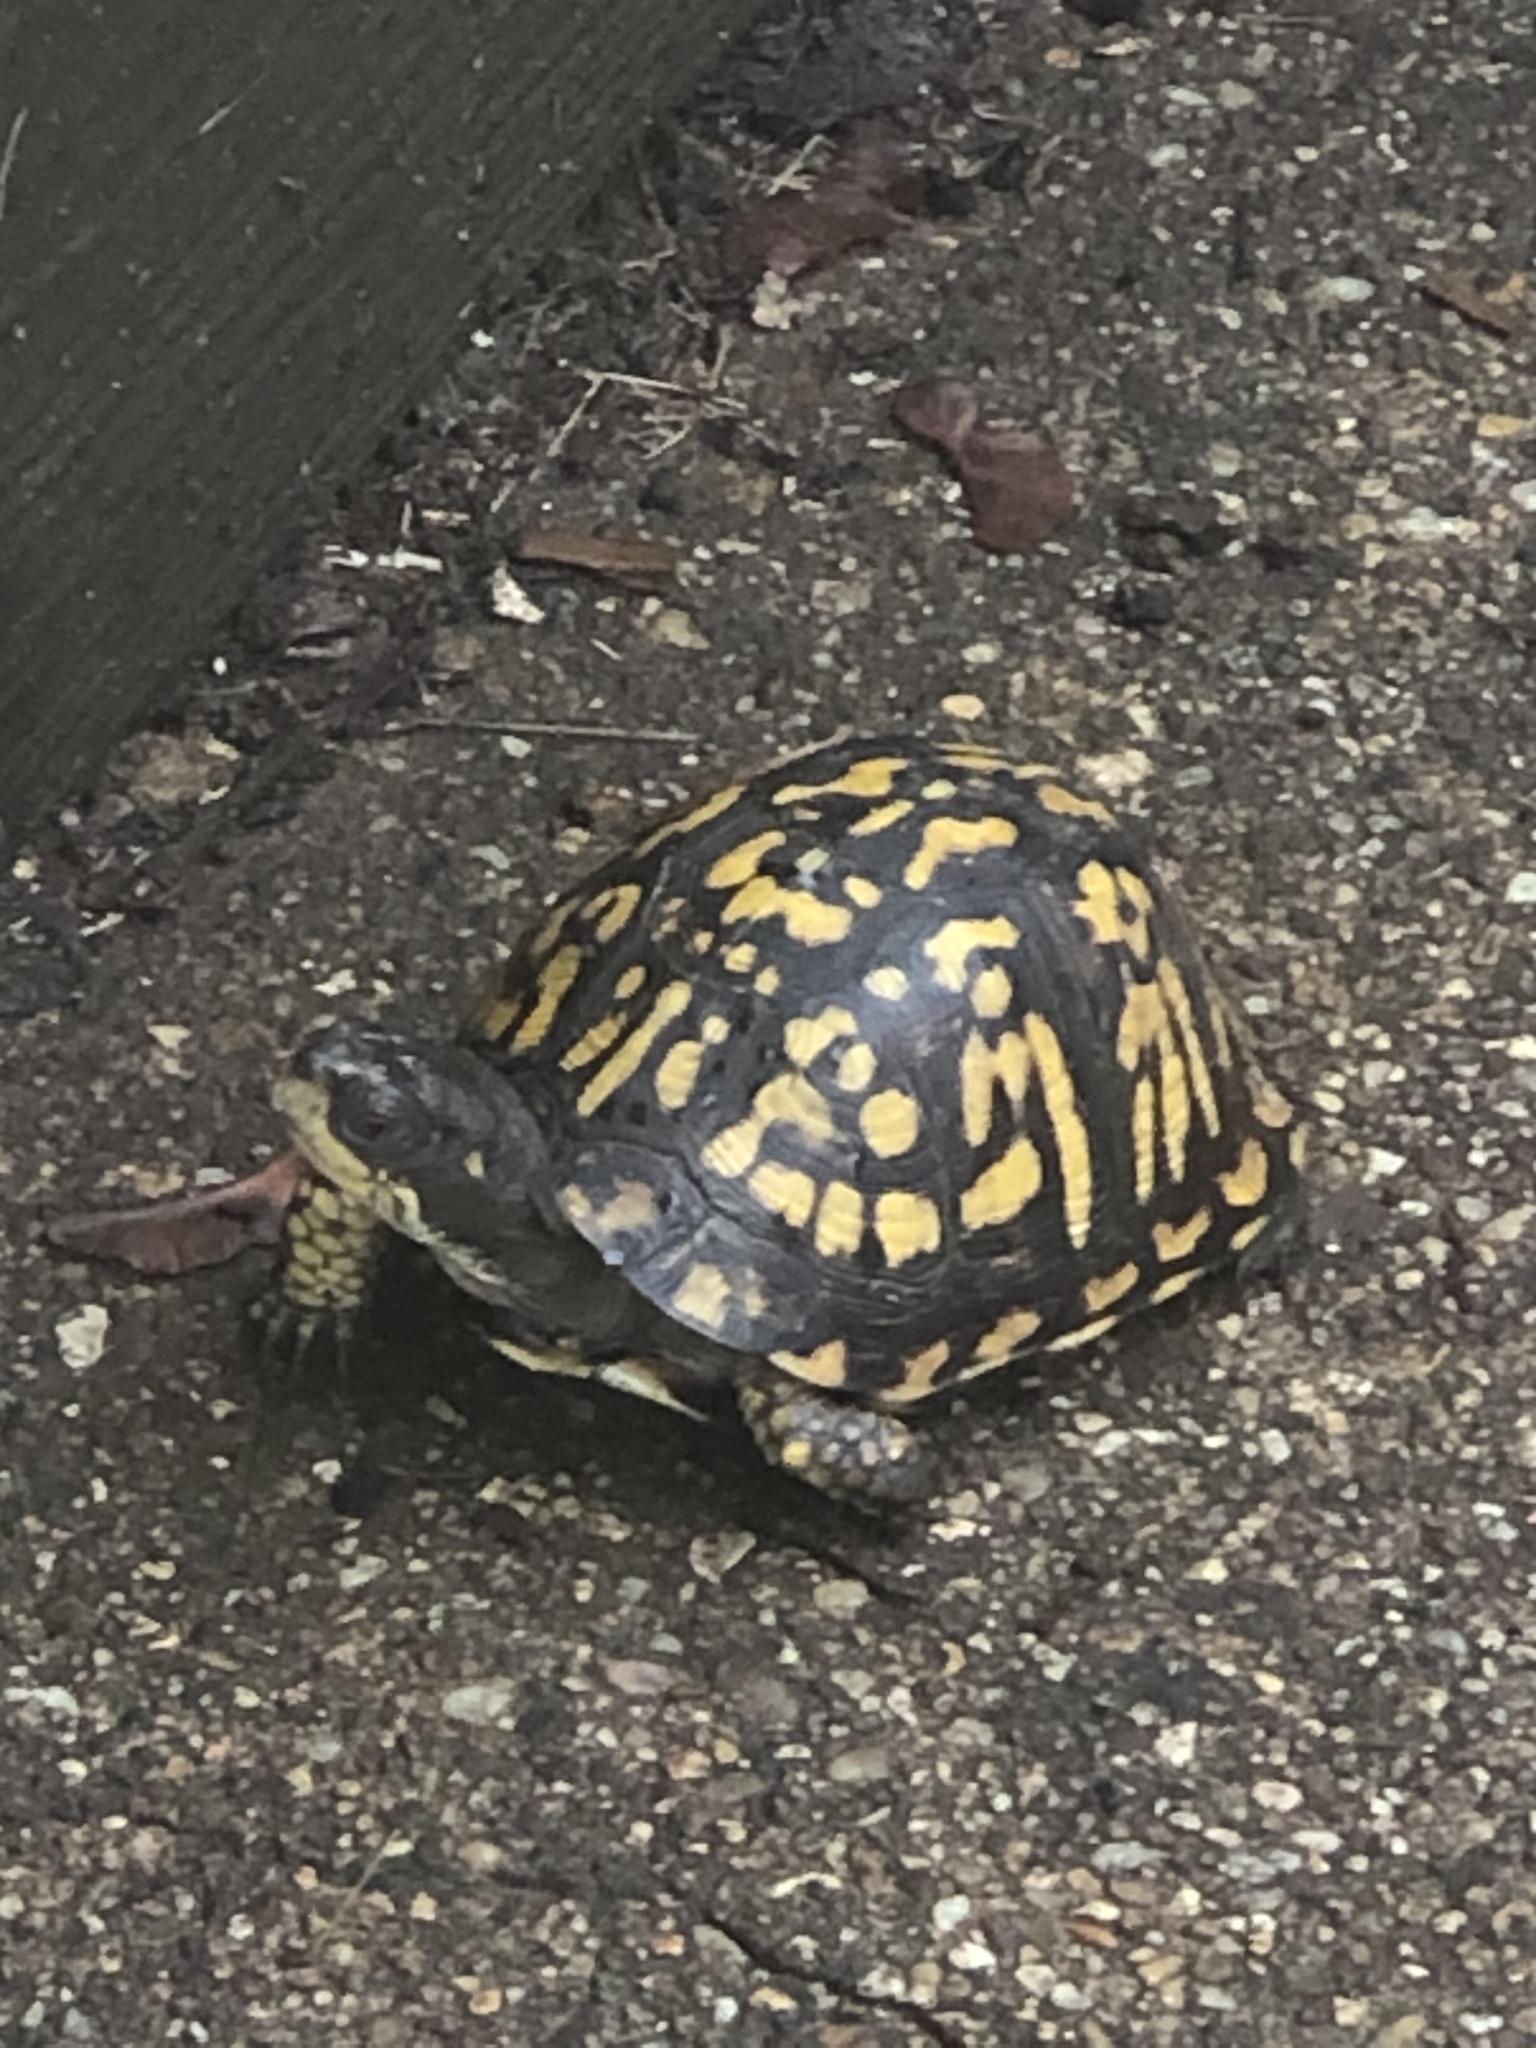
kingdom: Animalia
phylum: Chordata
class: Testudines
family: Emydidae
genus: Terrapene
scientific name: Terrapene carolina
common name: Common box turtle
